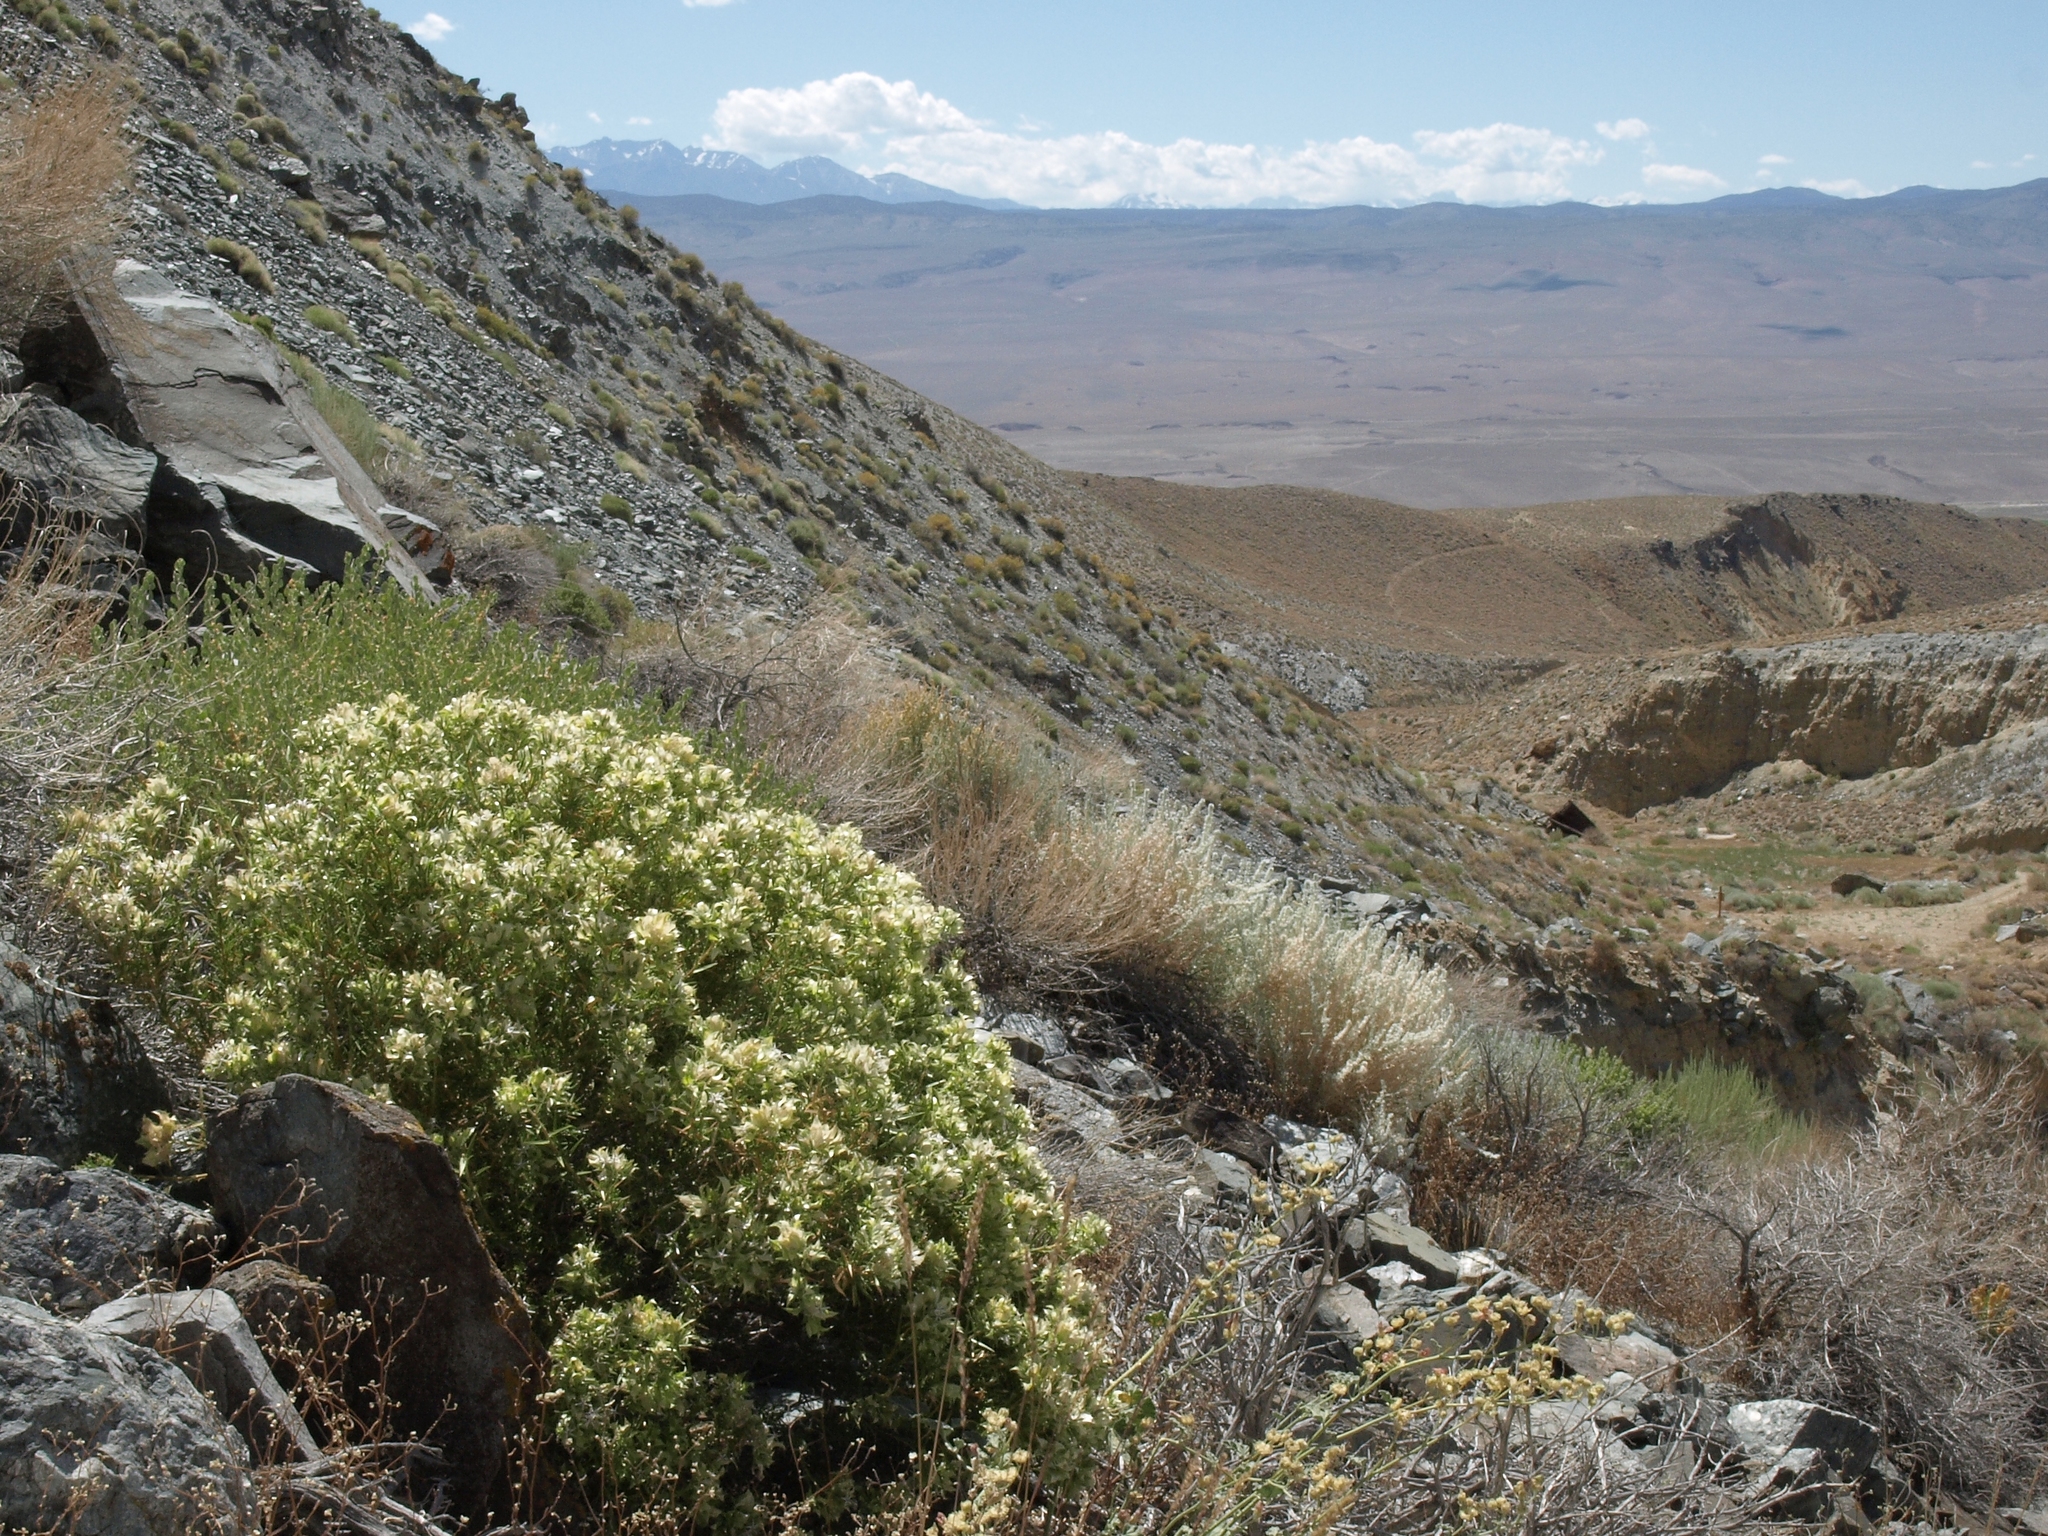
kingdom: Plantae
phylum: Tracheophyta
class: Magnoliopsida
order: Asterales
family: Asteraceae
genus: Hecastocleis
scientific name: Hecastocleis shockleyi
